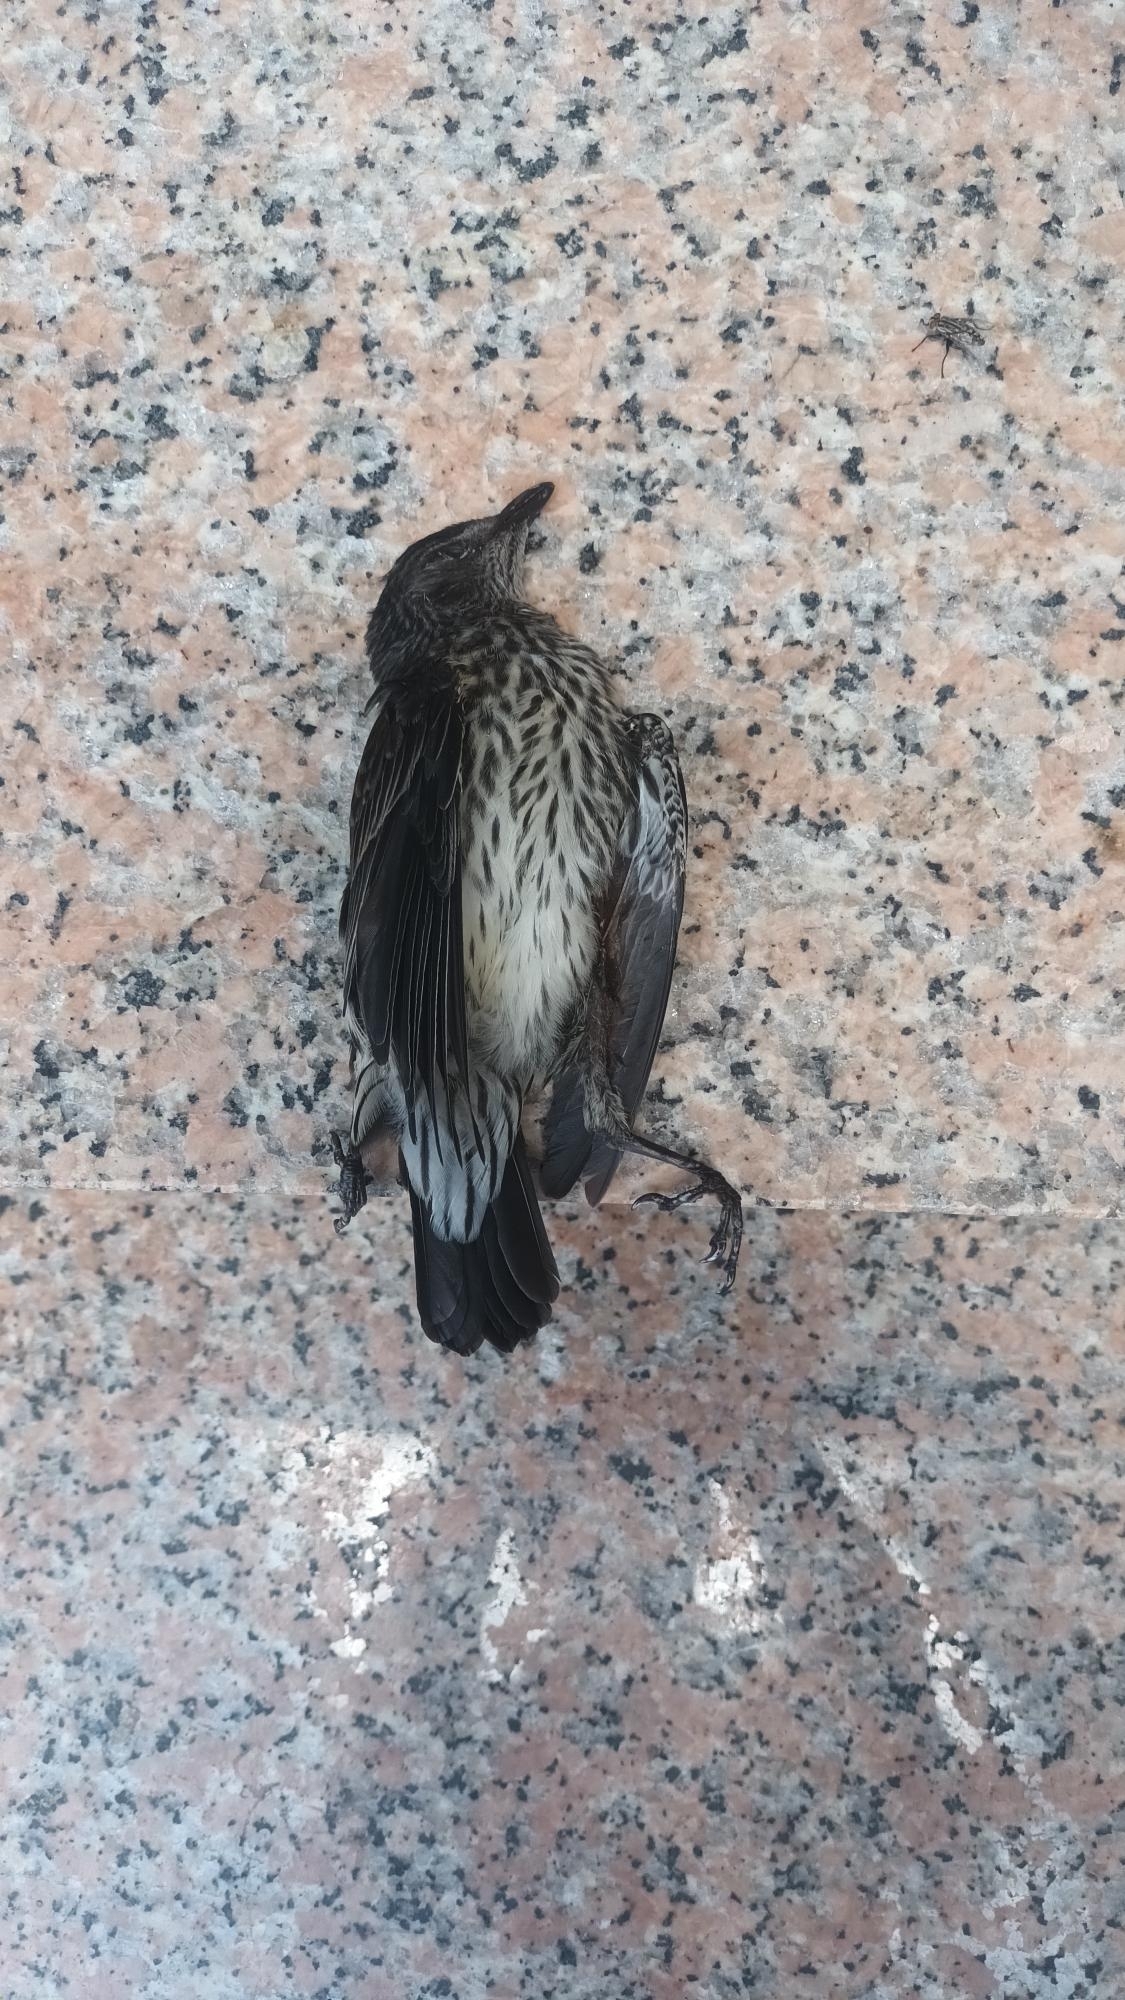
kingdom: Animalia
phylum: Chordata
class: Aves
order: Passeriformes
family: Sturnidae
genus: Aplonis
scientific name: Aplonis panayensis
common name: Asian glossy starling
